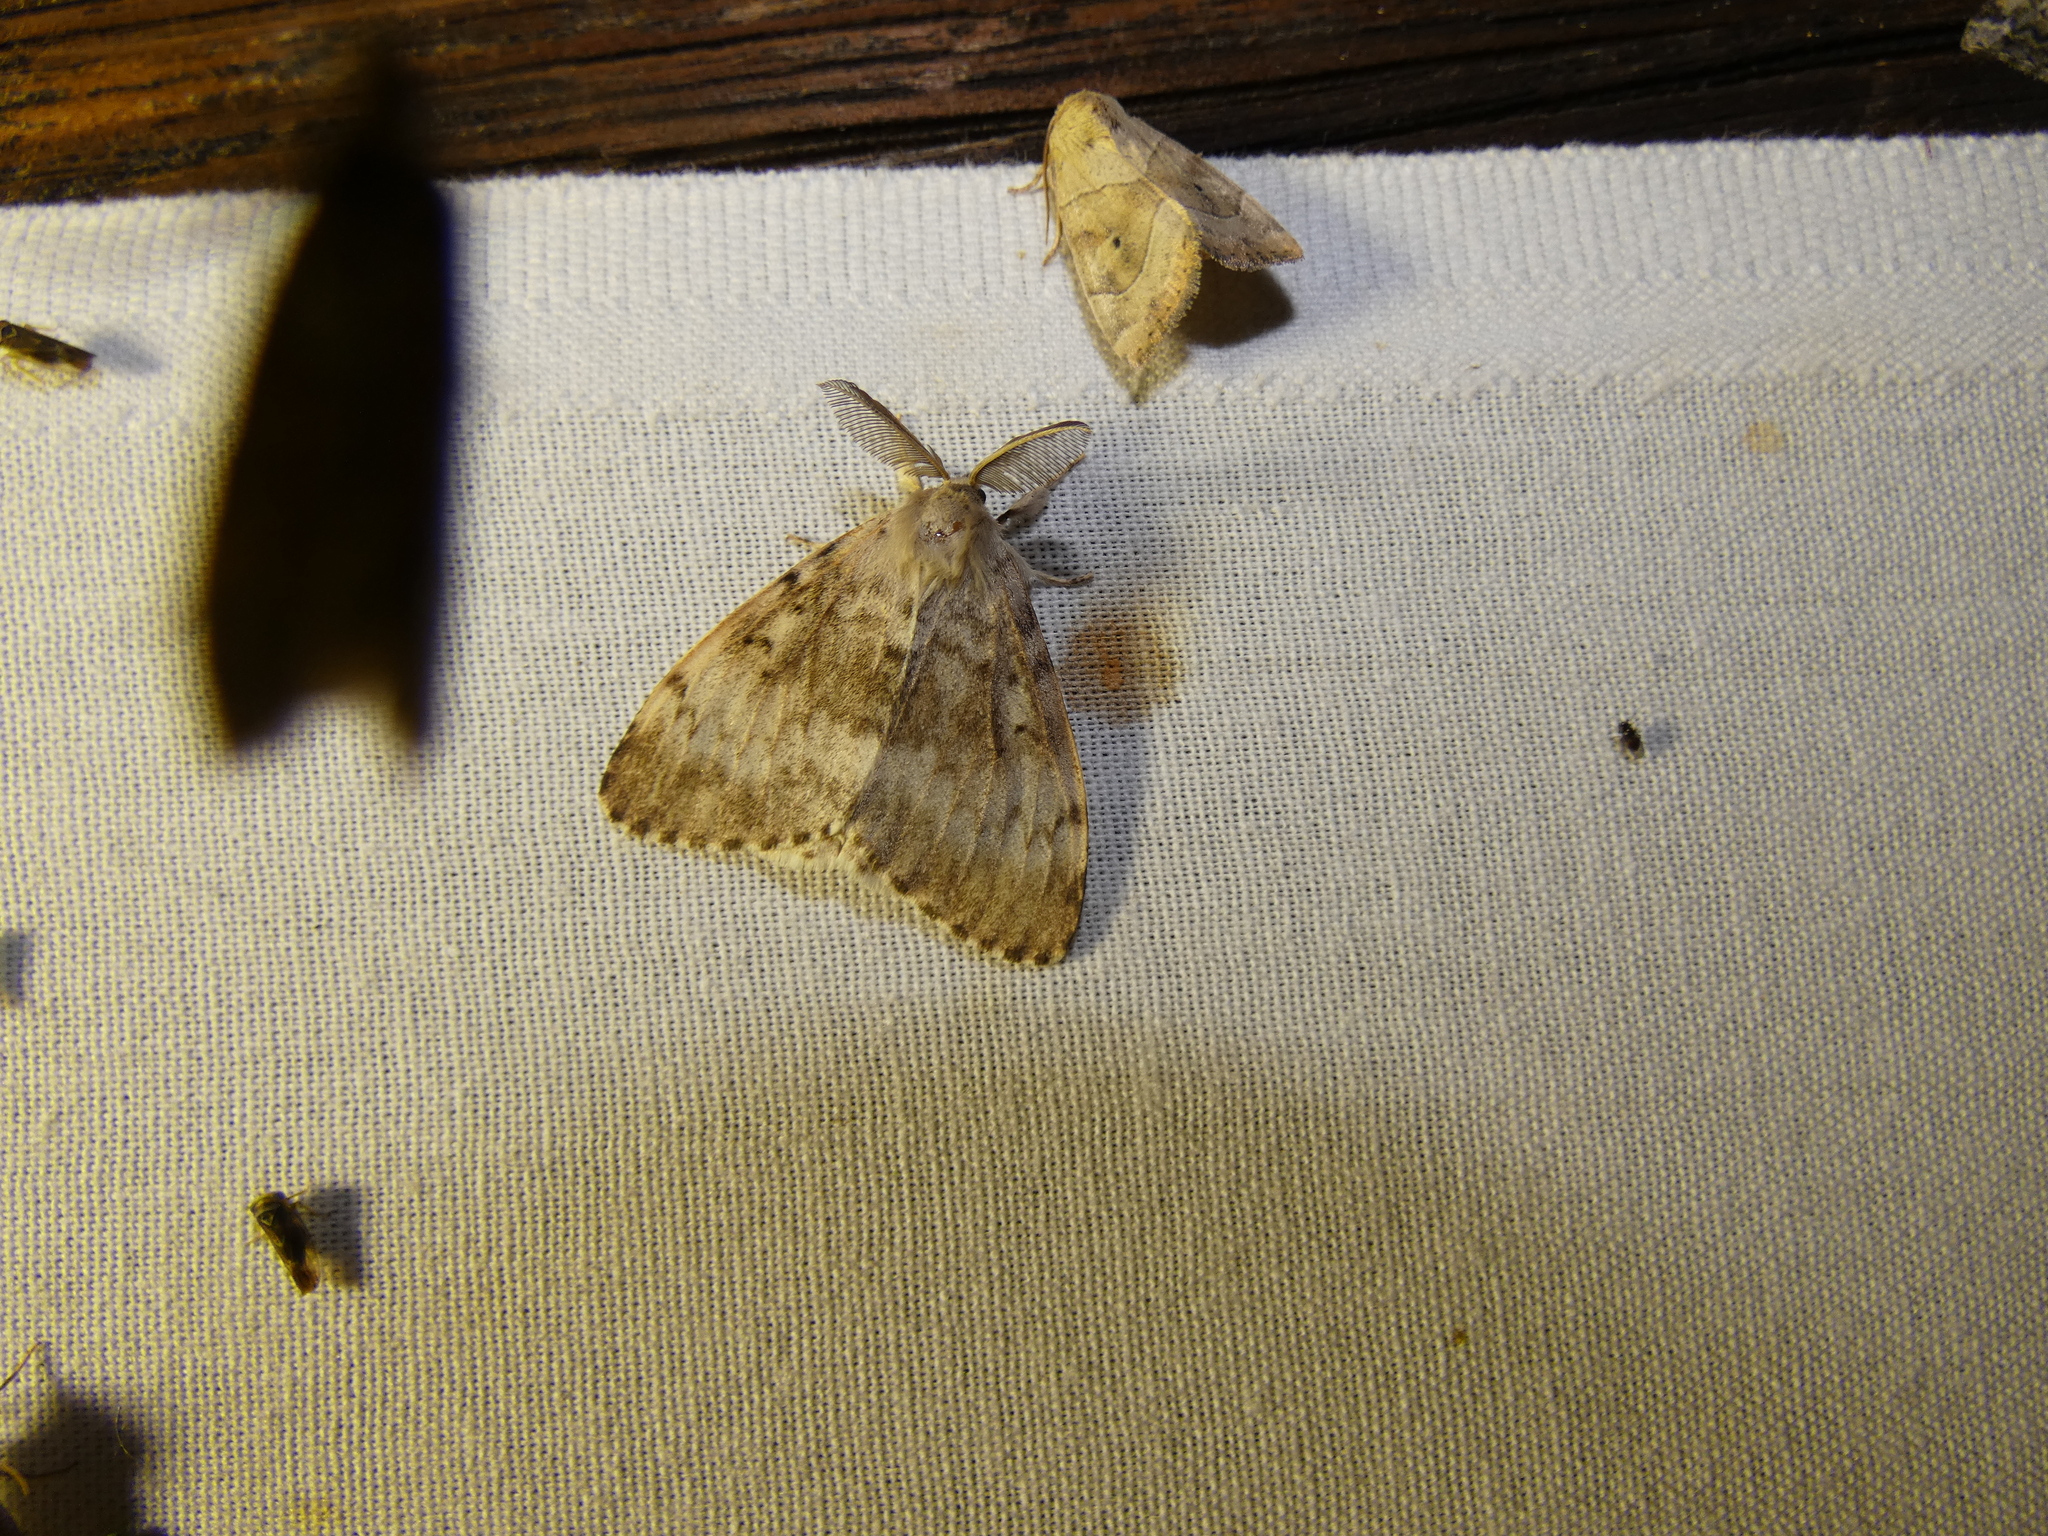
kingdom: Animalia
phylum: Arthropoda
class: Insecta
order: Lepidoptera
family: Erebidae
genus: Lymantria
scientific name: Lymantria dispar
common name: Gypsy moth
